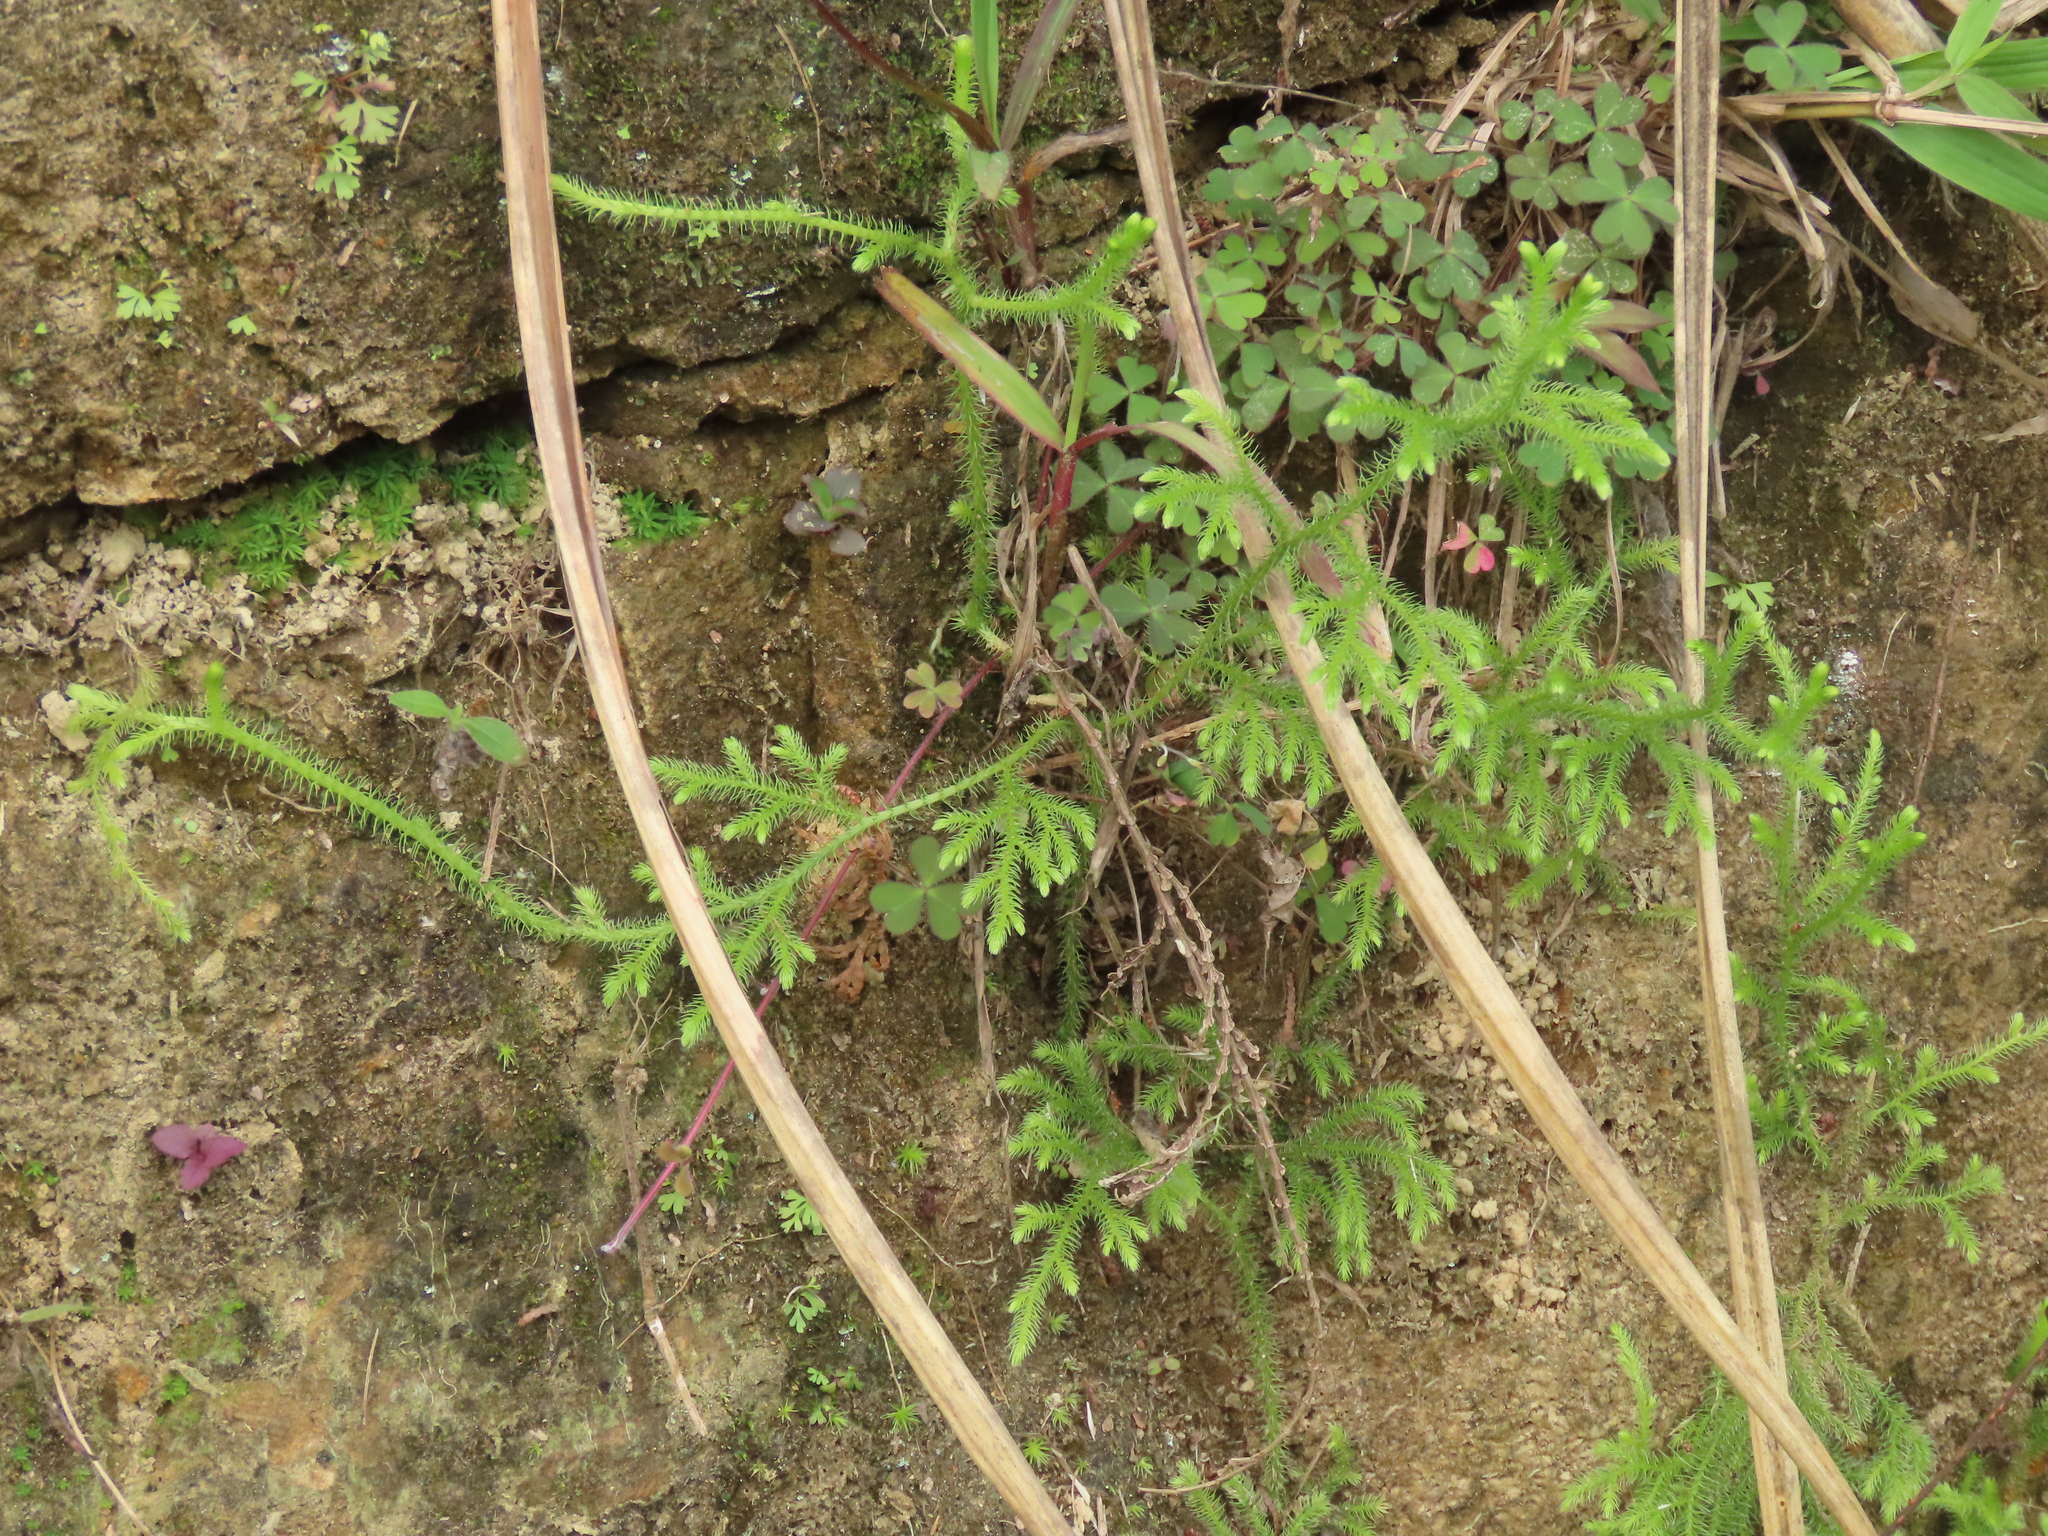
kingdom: Plantae
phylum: Tracheophyta
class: Lycopodiopsida
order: Lycopodiales
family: Lycopodiaceae
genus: Palhinhaea
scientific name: Palhinhaea cernua
